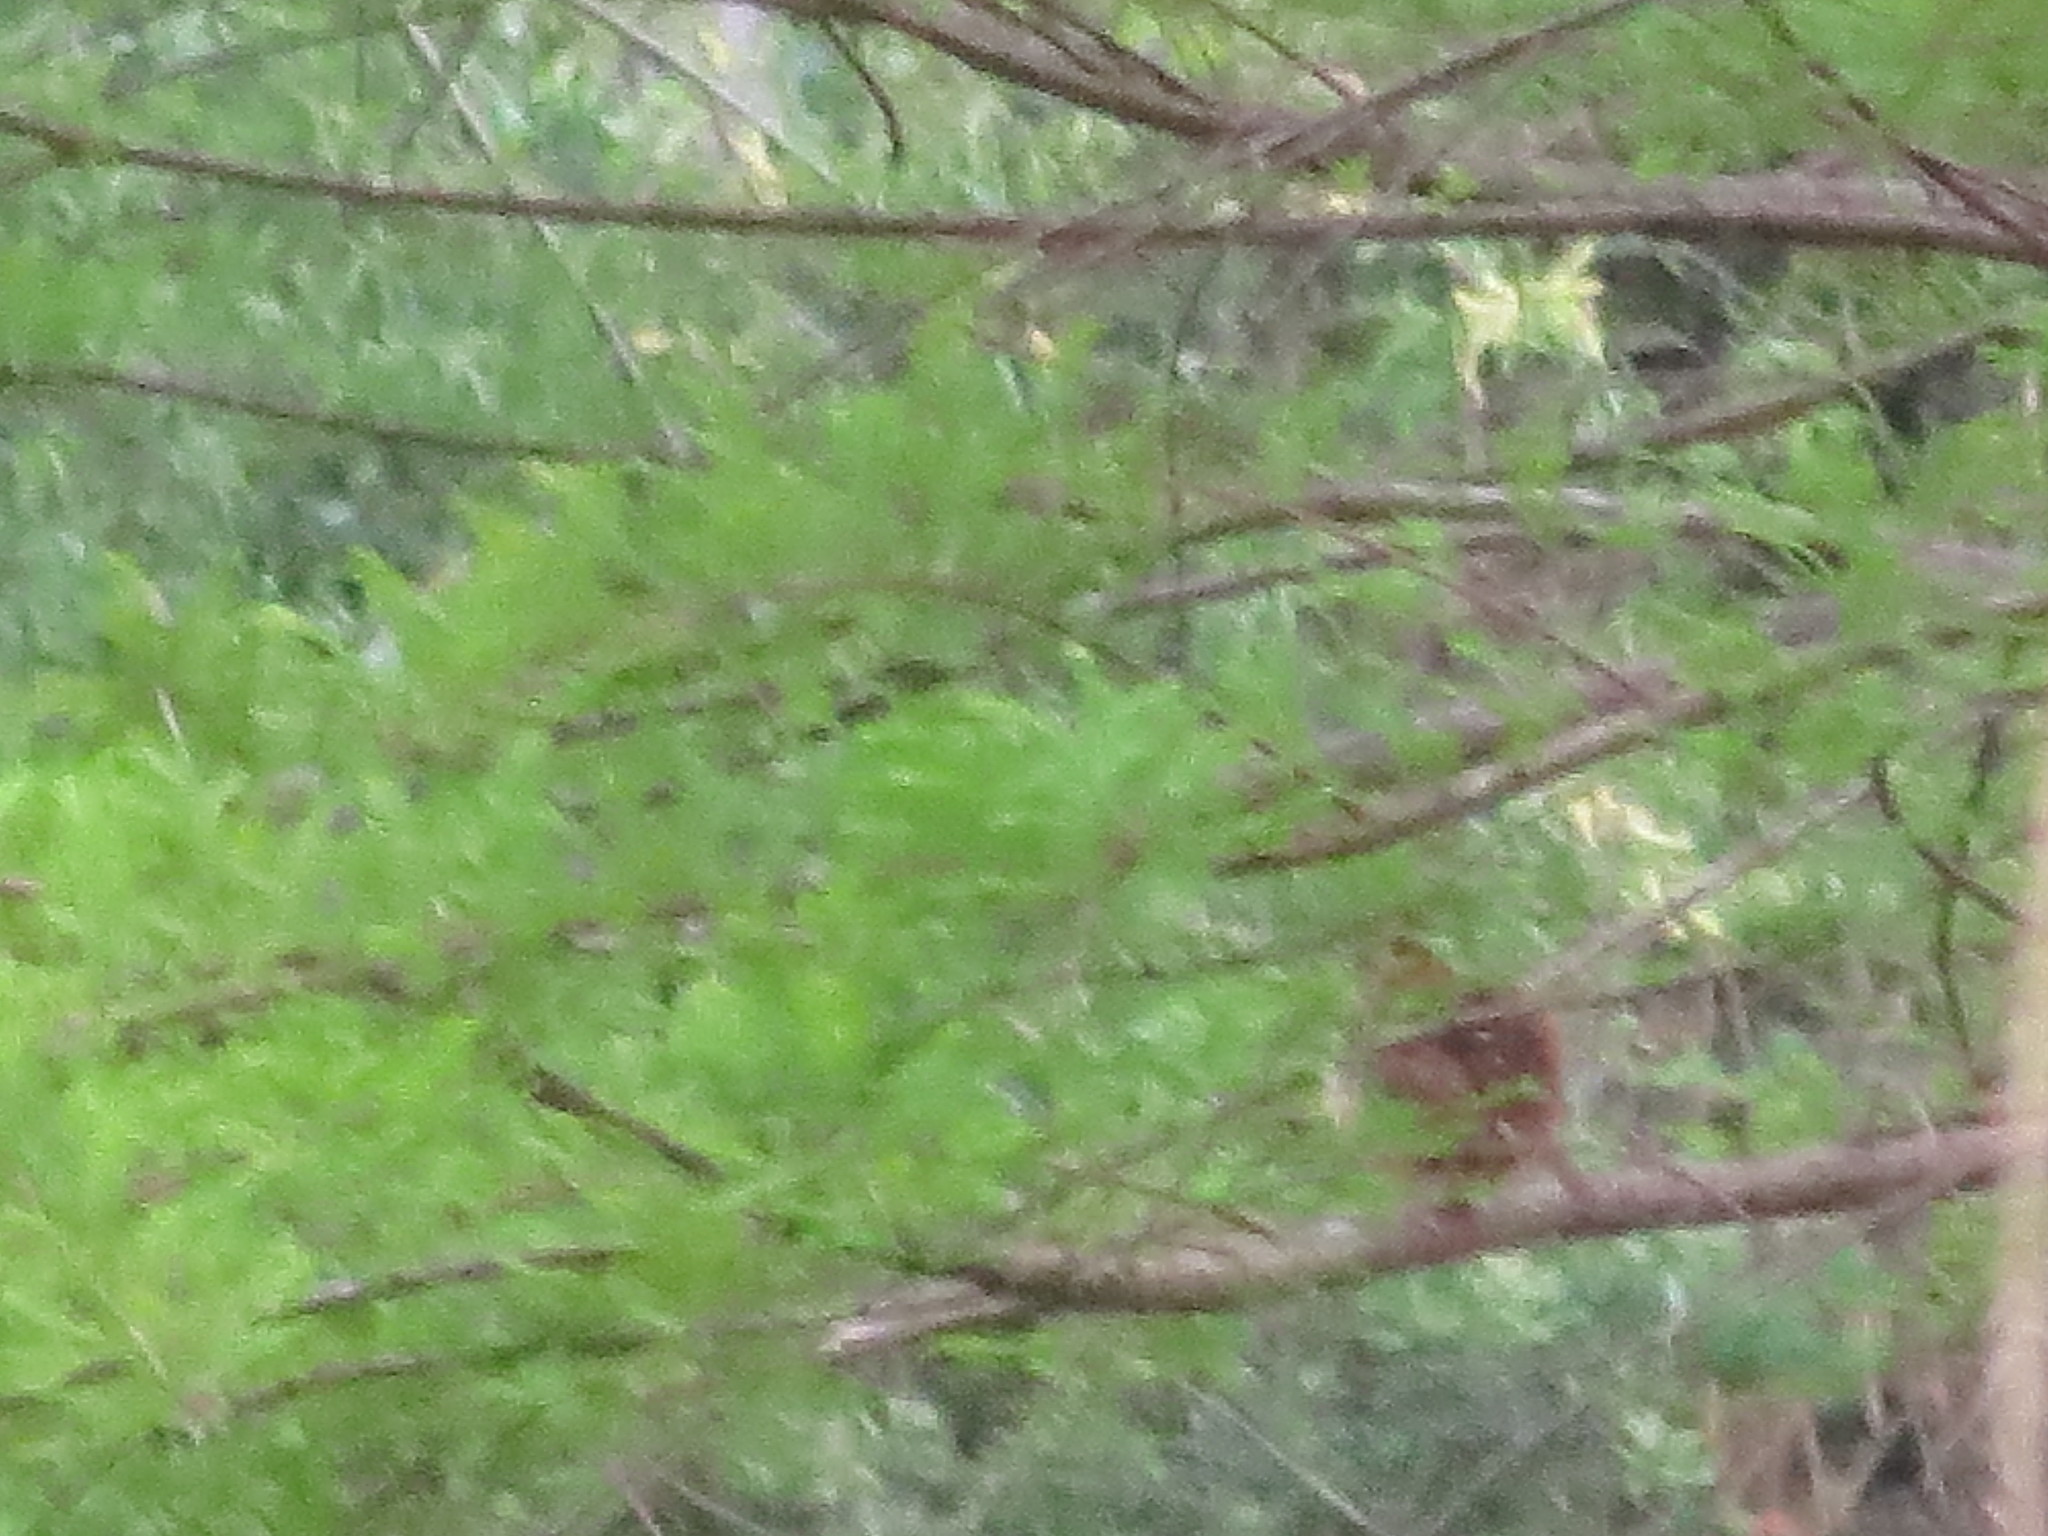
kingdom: Animalia
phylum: Chordata
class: Aves
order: Passeriformes
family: Cardinalidae
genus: Cardinalis
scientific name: Cardinalis cardinalis
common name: Northern cardinal
